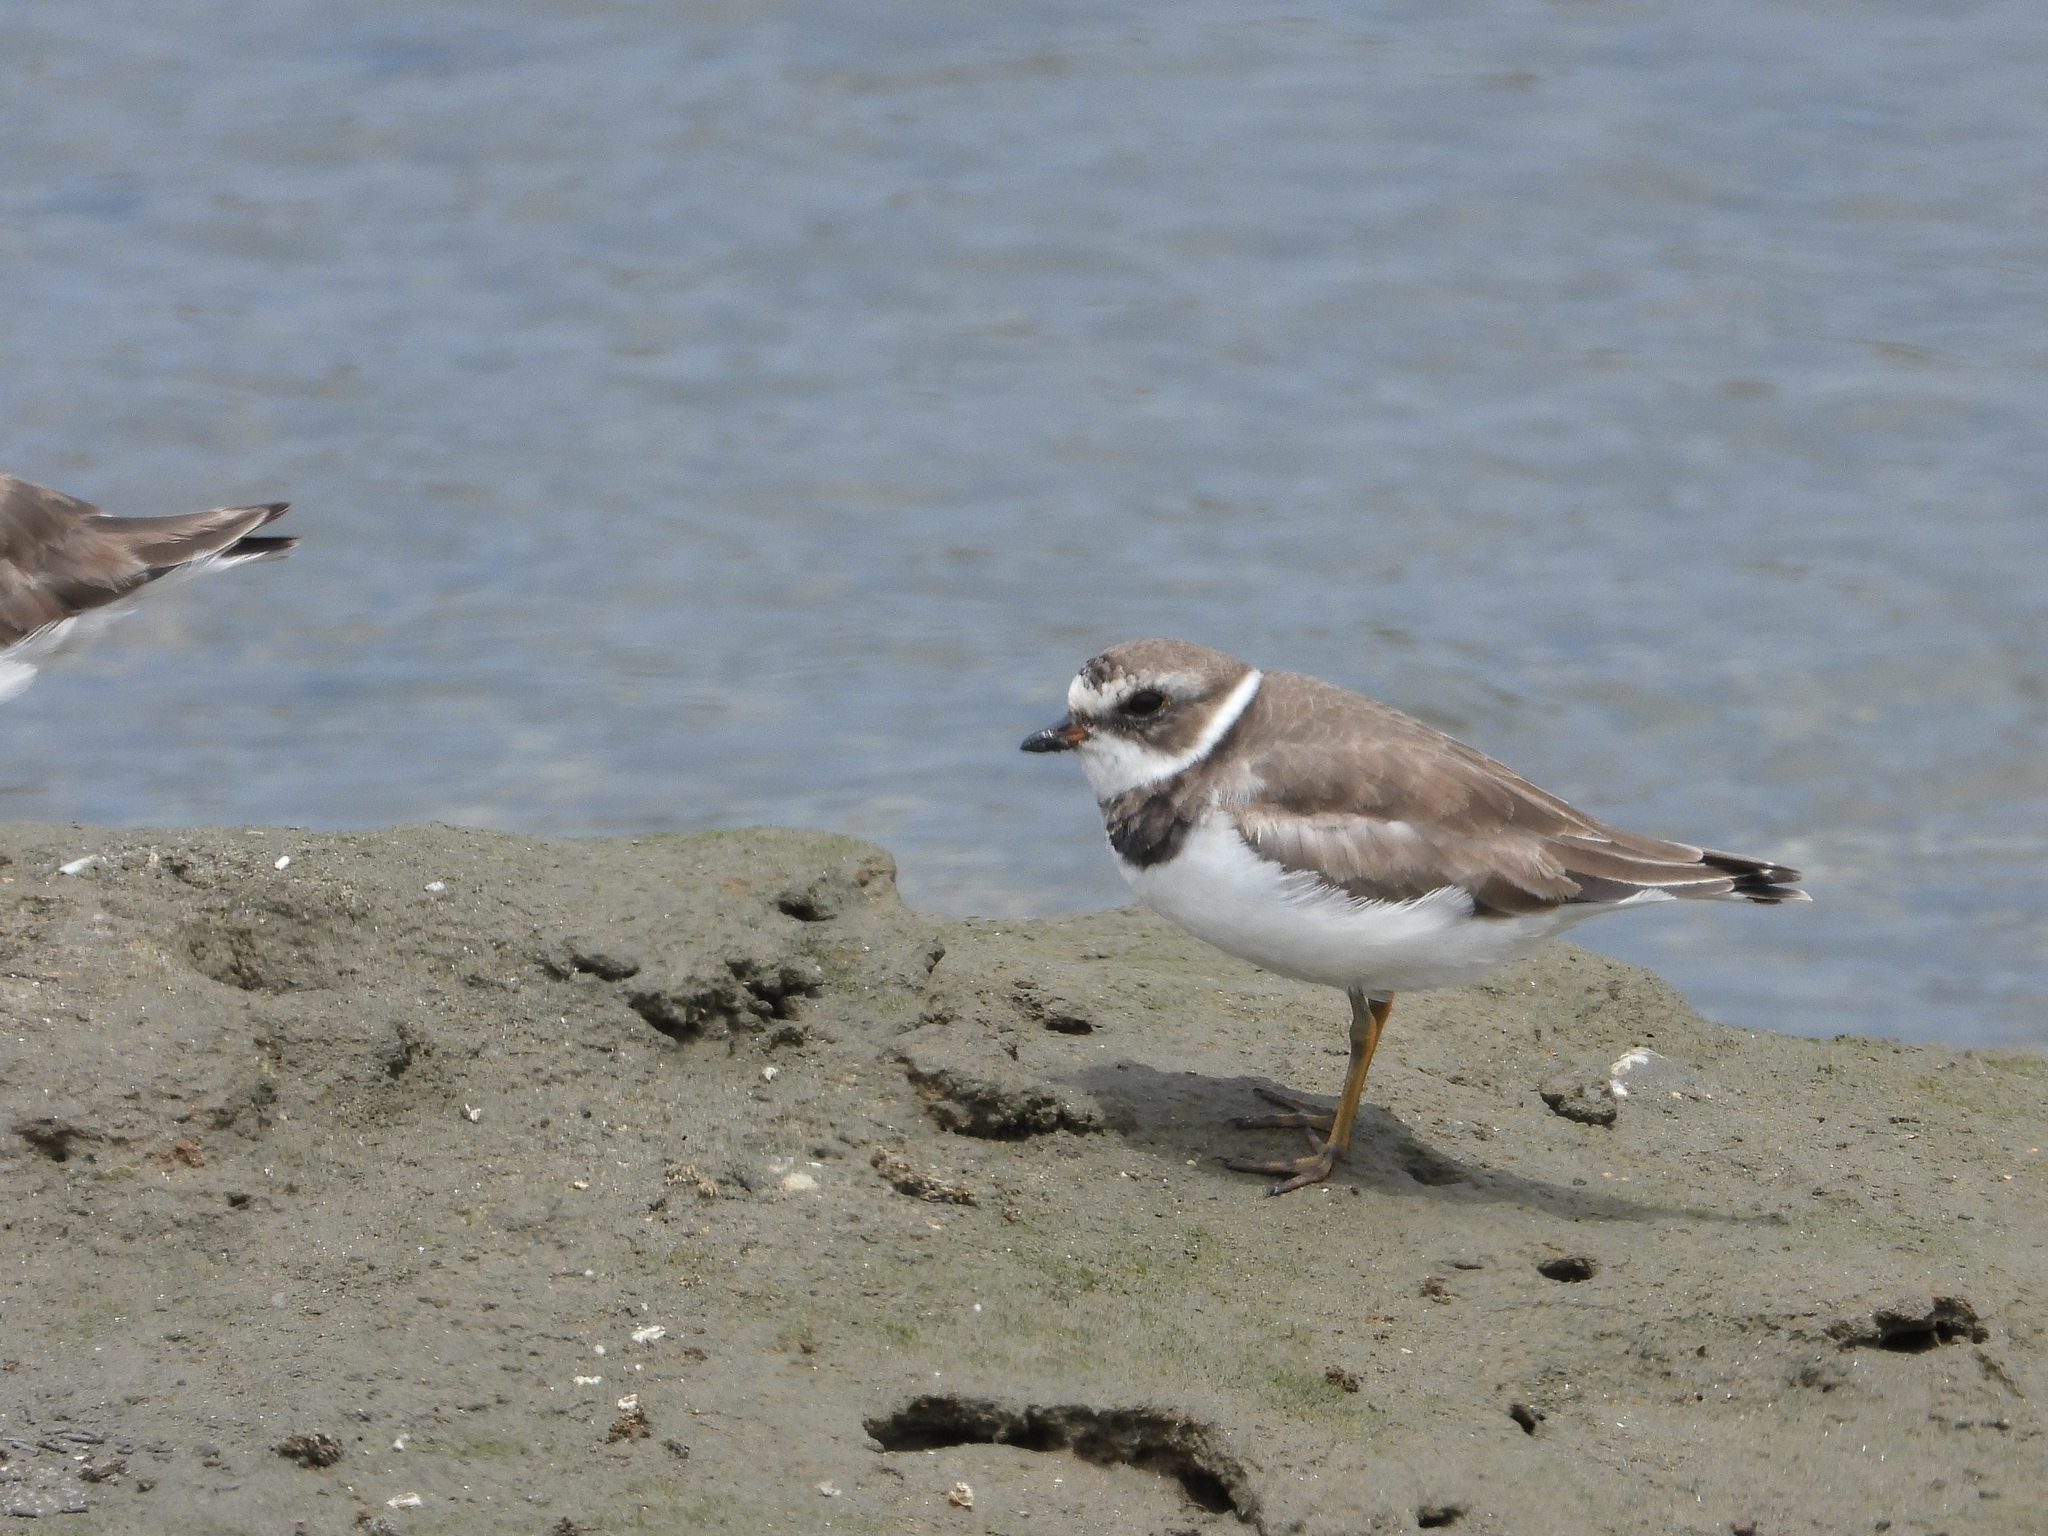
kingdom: Animalia
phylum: Chordata
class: Aves
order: Charadriiformes
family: Charadriidae
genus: Charadrius
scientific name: Charadrius semipalmatus
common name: Semipalmated plover
